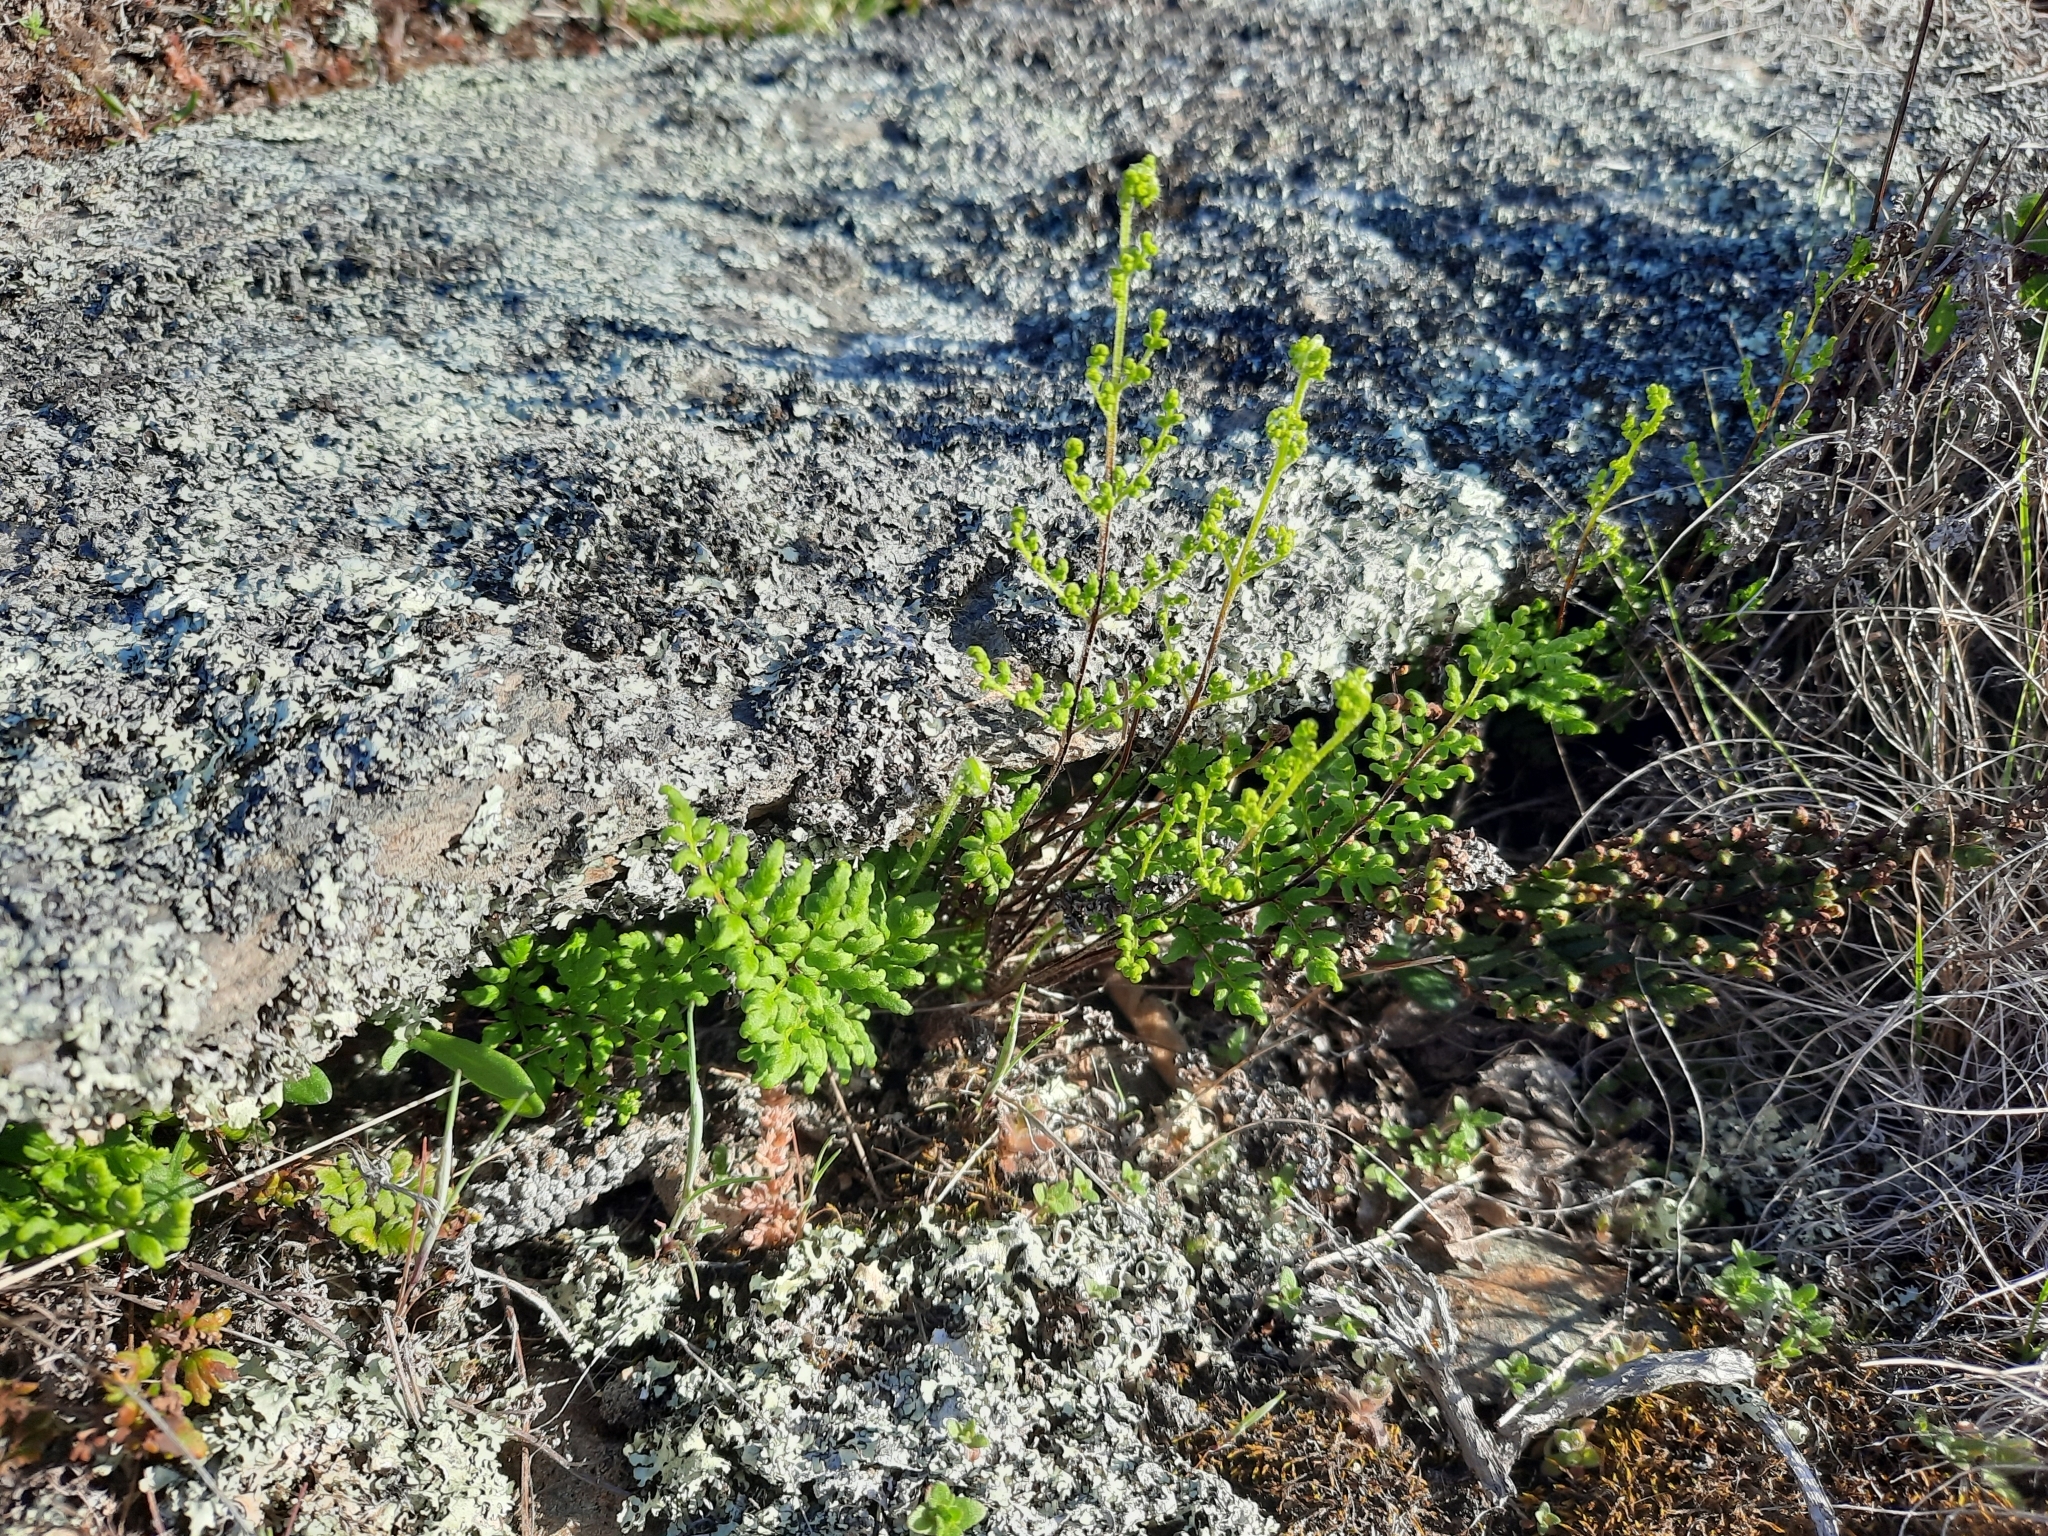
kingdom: Plantae
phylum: Tracheophyta
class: Polypodiopsida
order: Polypodiales
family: Pteridaceae
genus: Cheilanthes
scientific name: Cheilanthes sieberi
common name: Mulga fern
